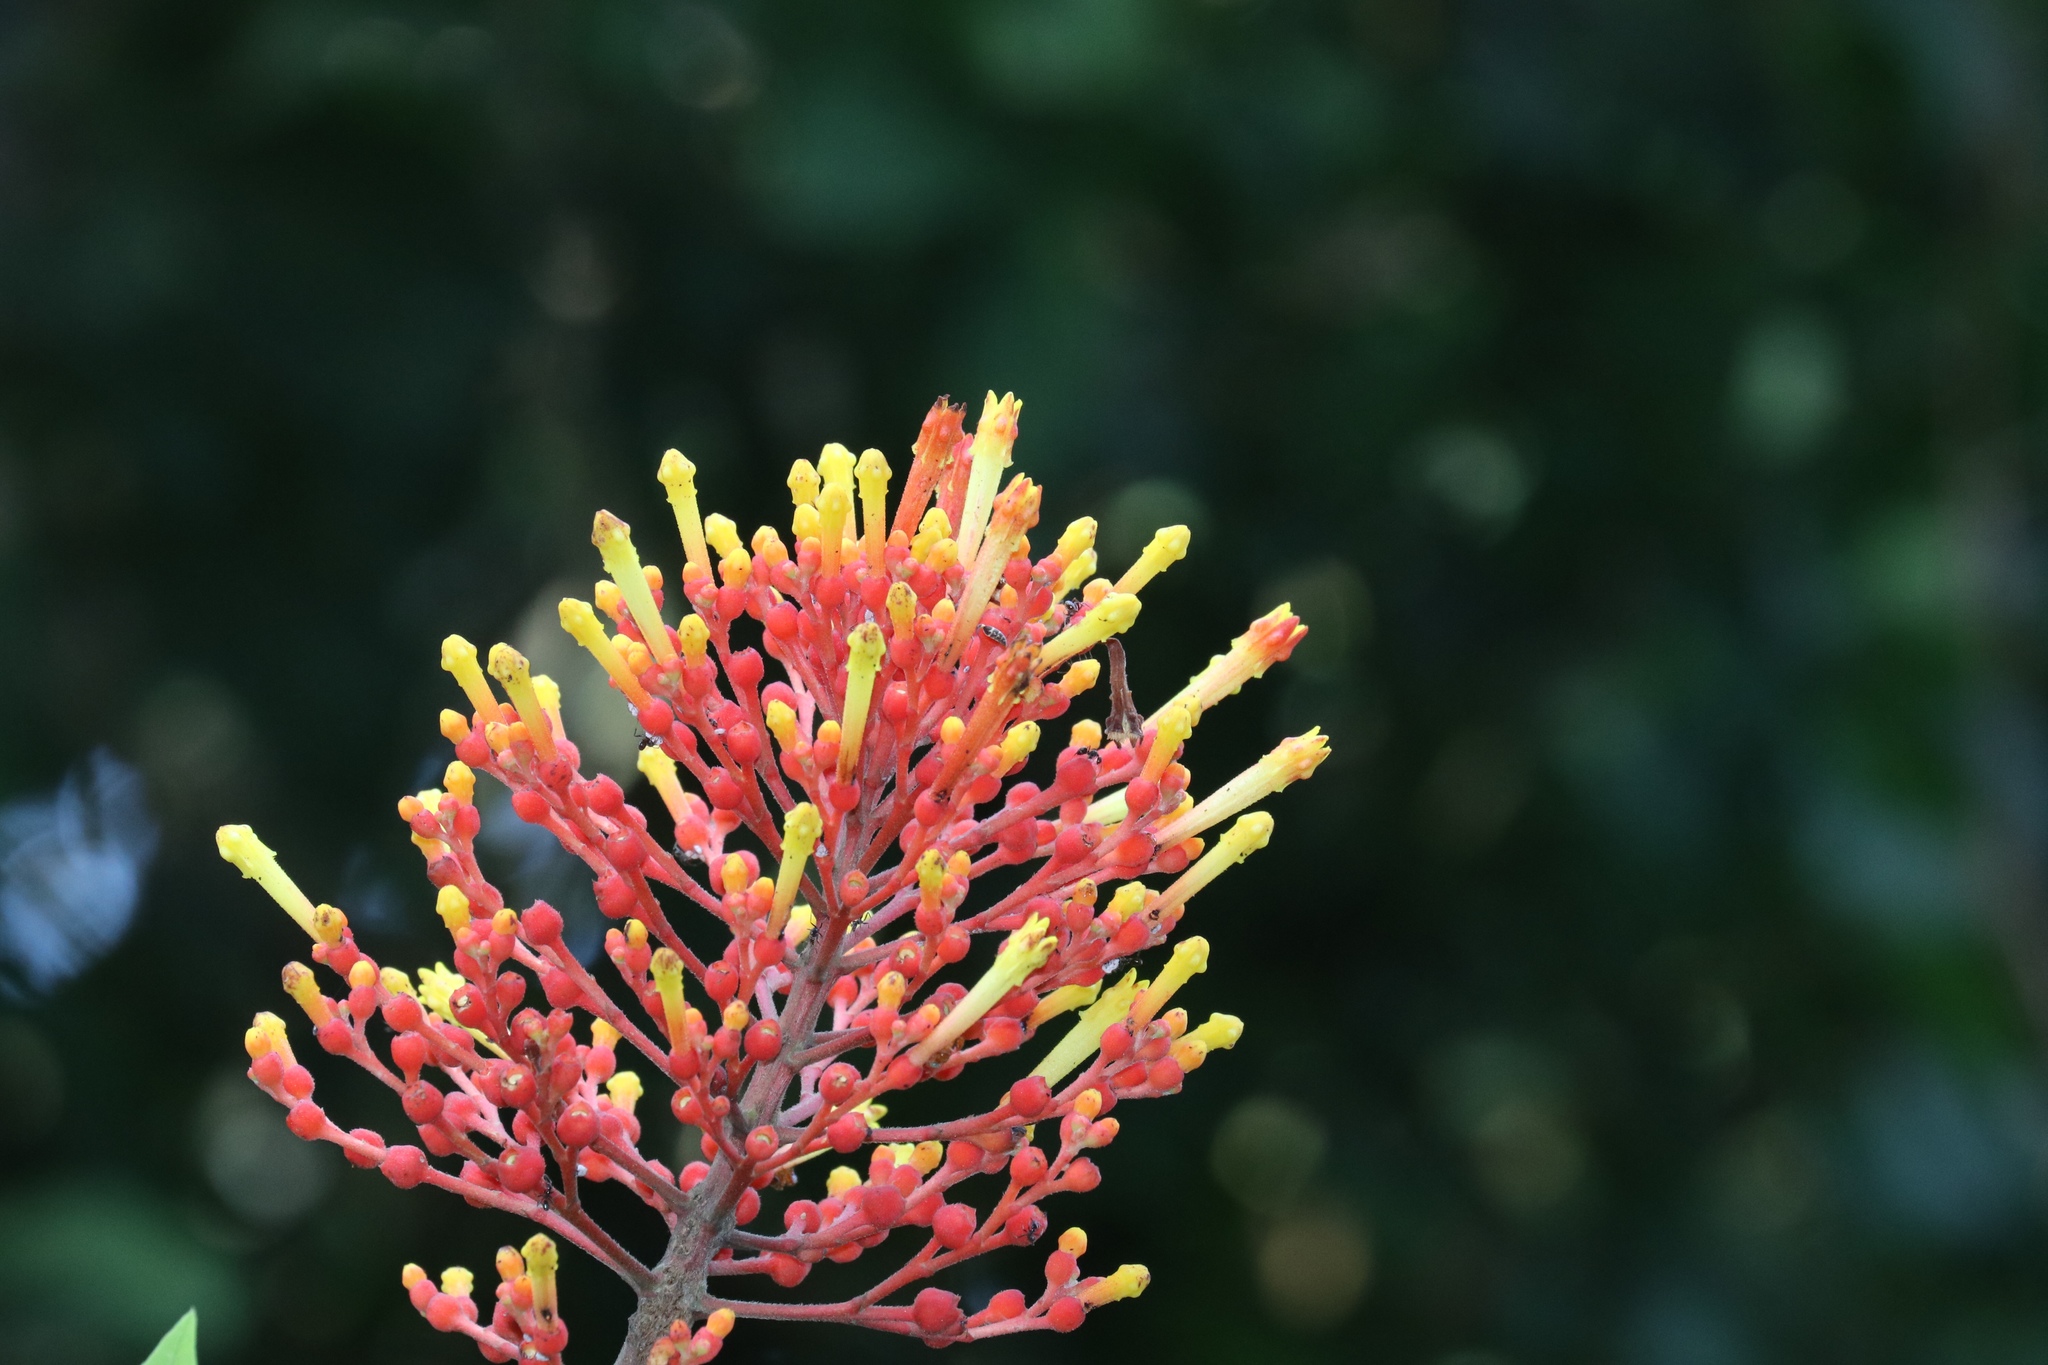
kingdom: Plantae
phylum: Tracheophyta
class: Magnoliopsida
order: Gentianales
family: Rubiaceae
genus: Isertia
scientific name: Isertia haenkeana
